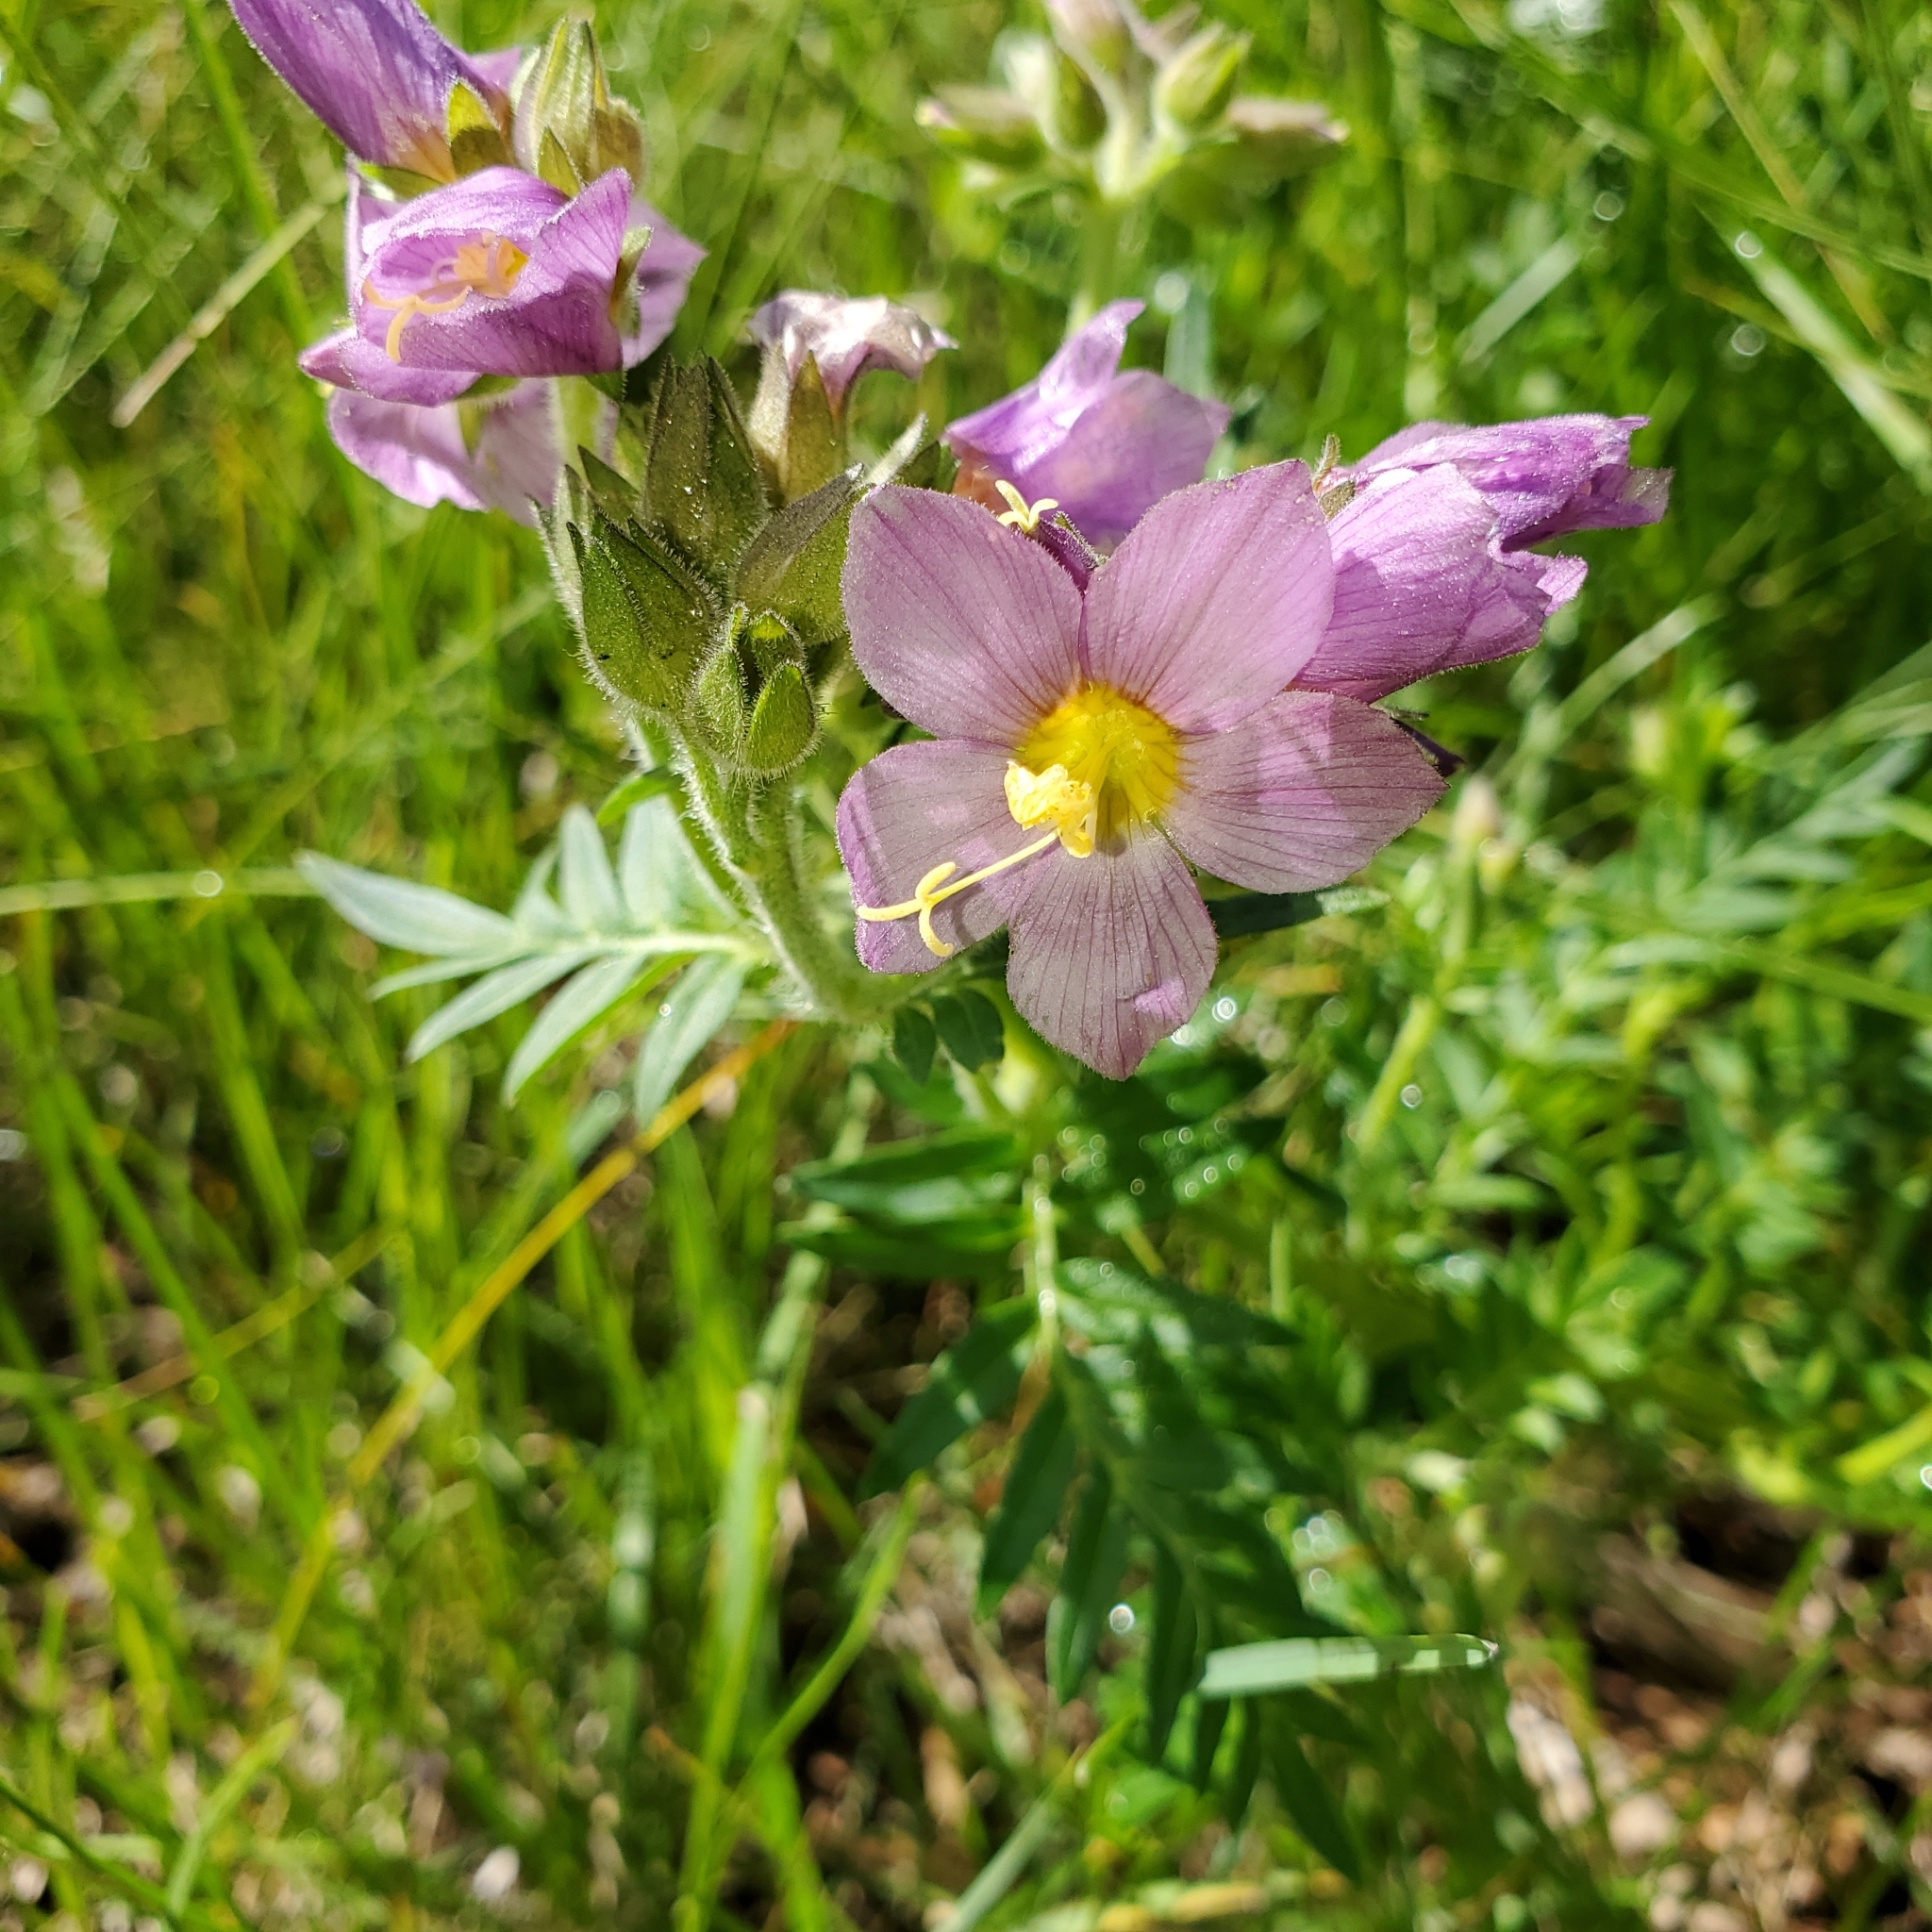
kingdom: Plantae
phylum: Tracheophyta
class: Magnoliopsida
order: Ericales
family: Polemoniaceae
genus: Polemonium
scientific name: Polemonium apachianum
